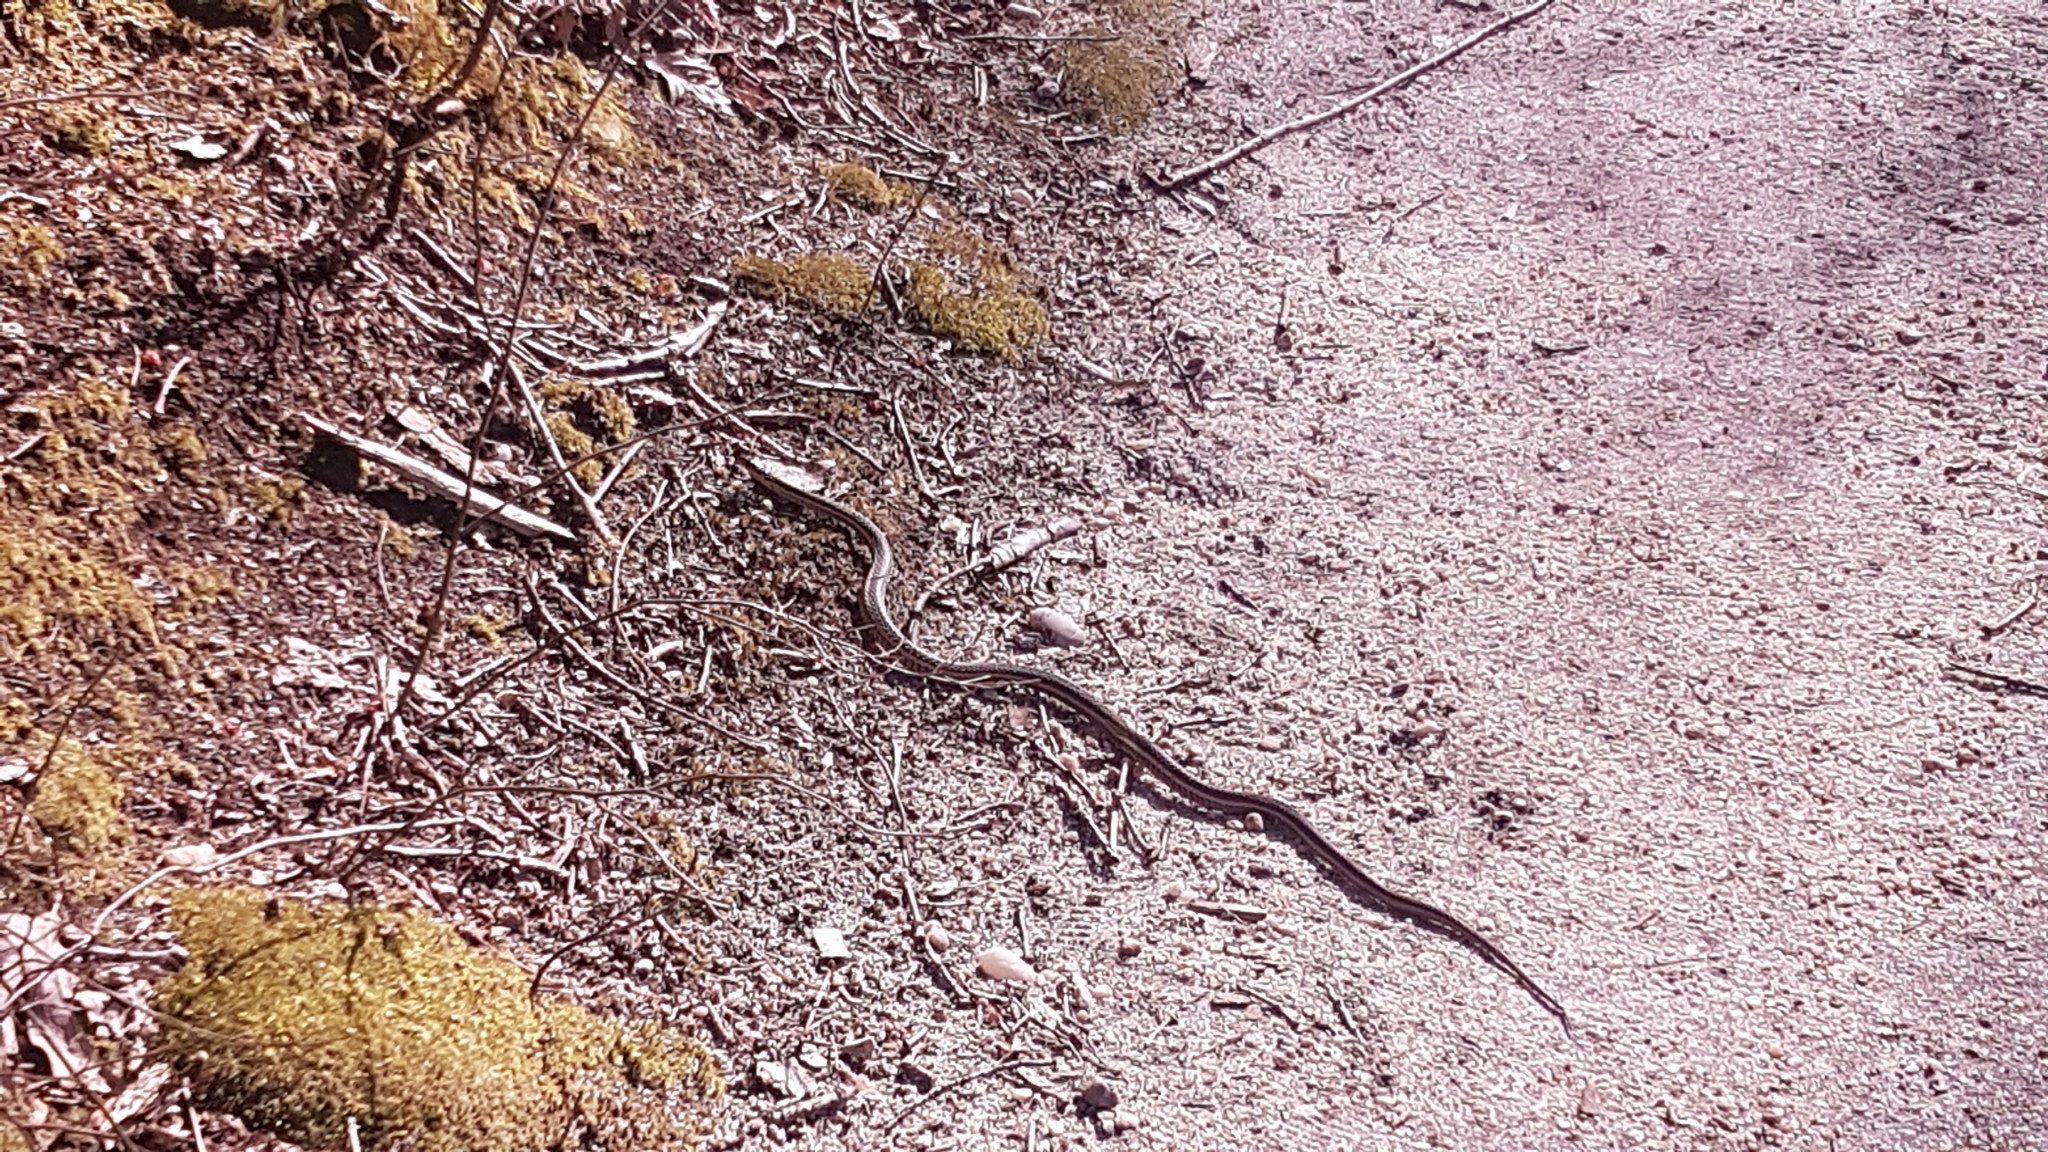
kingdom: Animalia
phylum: Chordata
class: Squamata
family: Colubridae
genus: Thamnophis
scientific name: Thamnophis sirtalis
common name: Common garter snake
